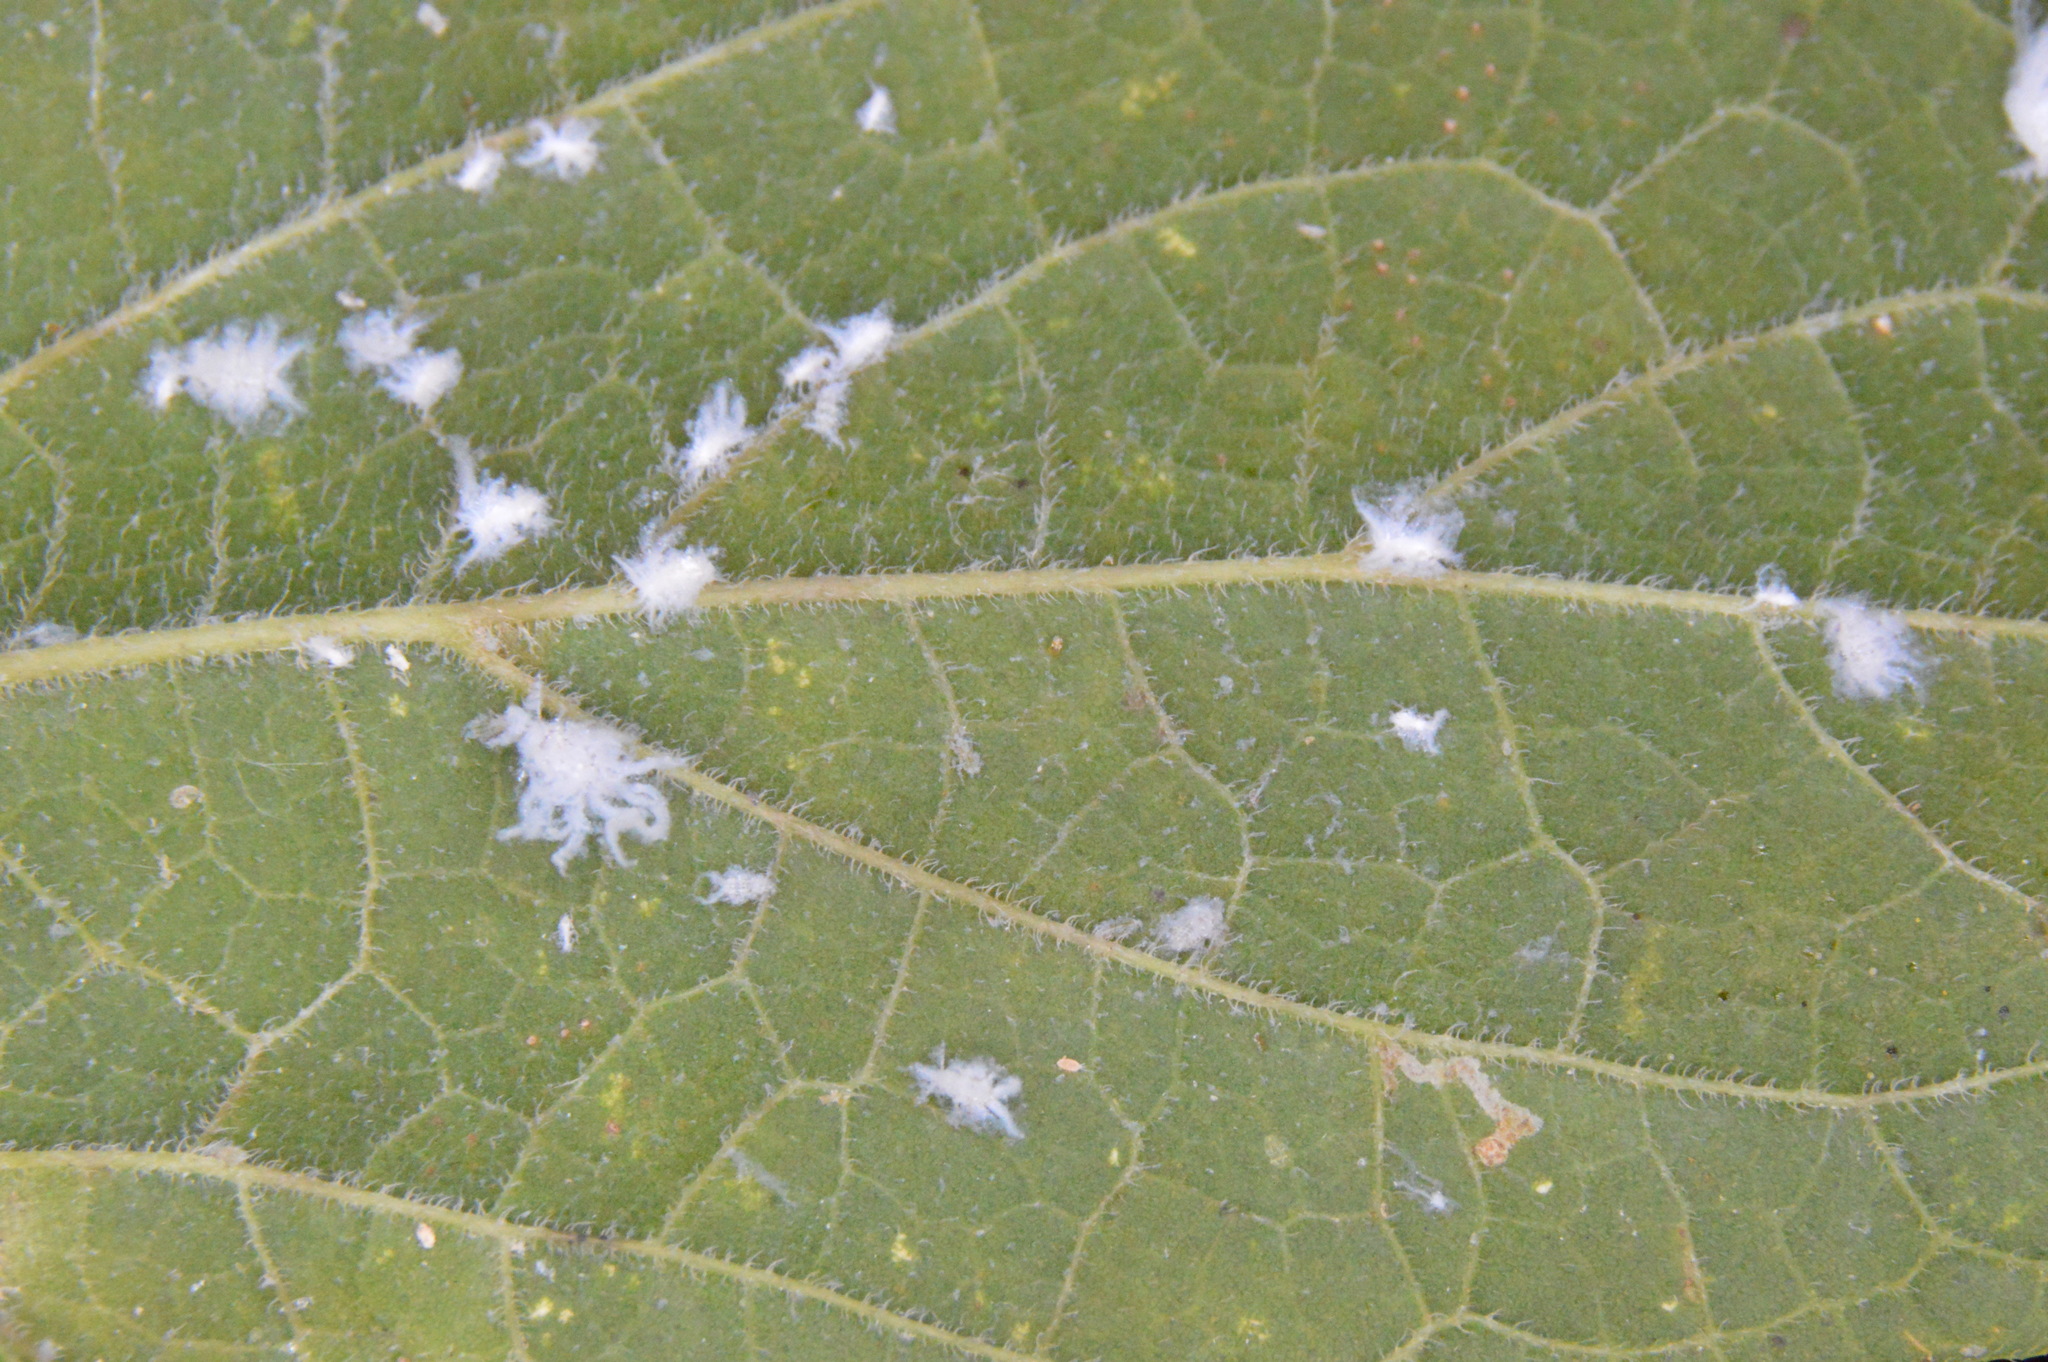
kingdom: Animalia
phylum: Arthropoda
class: Insecta
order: Hemiptera
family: Aphididae
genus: Shivaphis
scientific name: Shivaphis celti
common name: Asian wooly hackberry aphid
